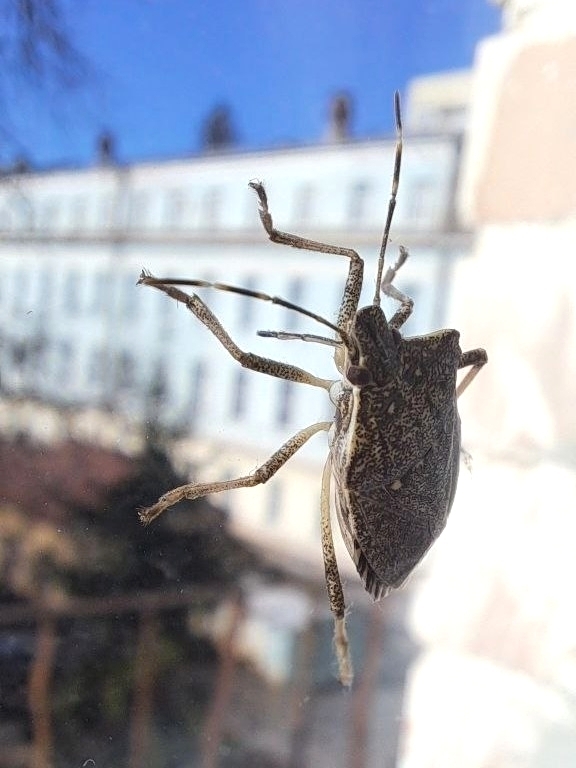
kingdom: Animalia
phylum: Arthropoda
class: Insecta
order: Hemiptera
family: Pentatomidae
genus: Halyomorpha
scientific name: Halyomorpha halys
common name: Brown marmorated stink bug
